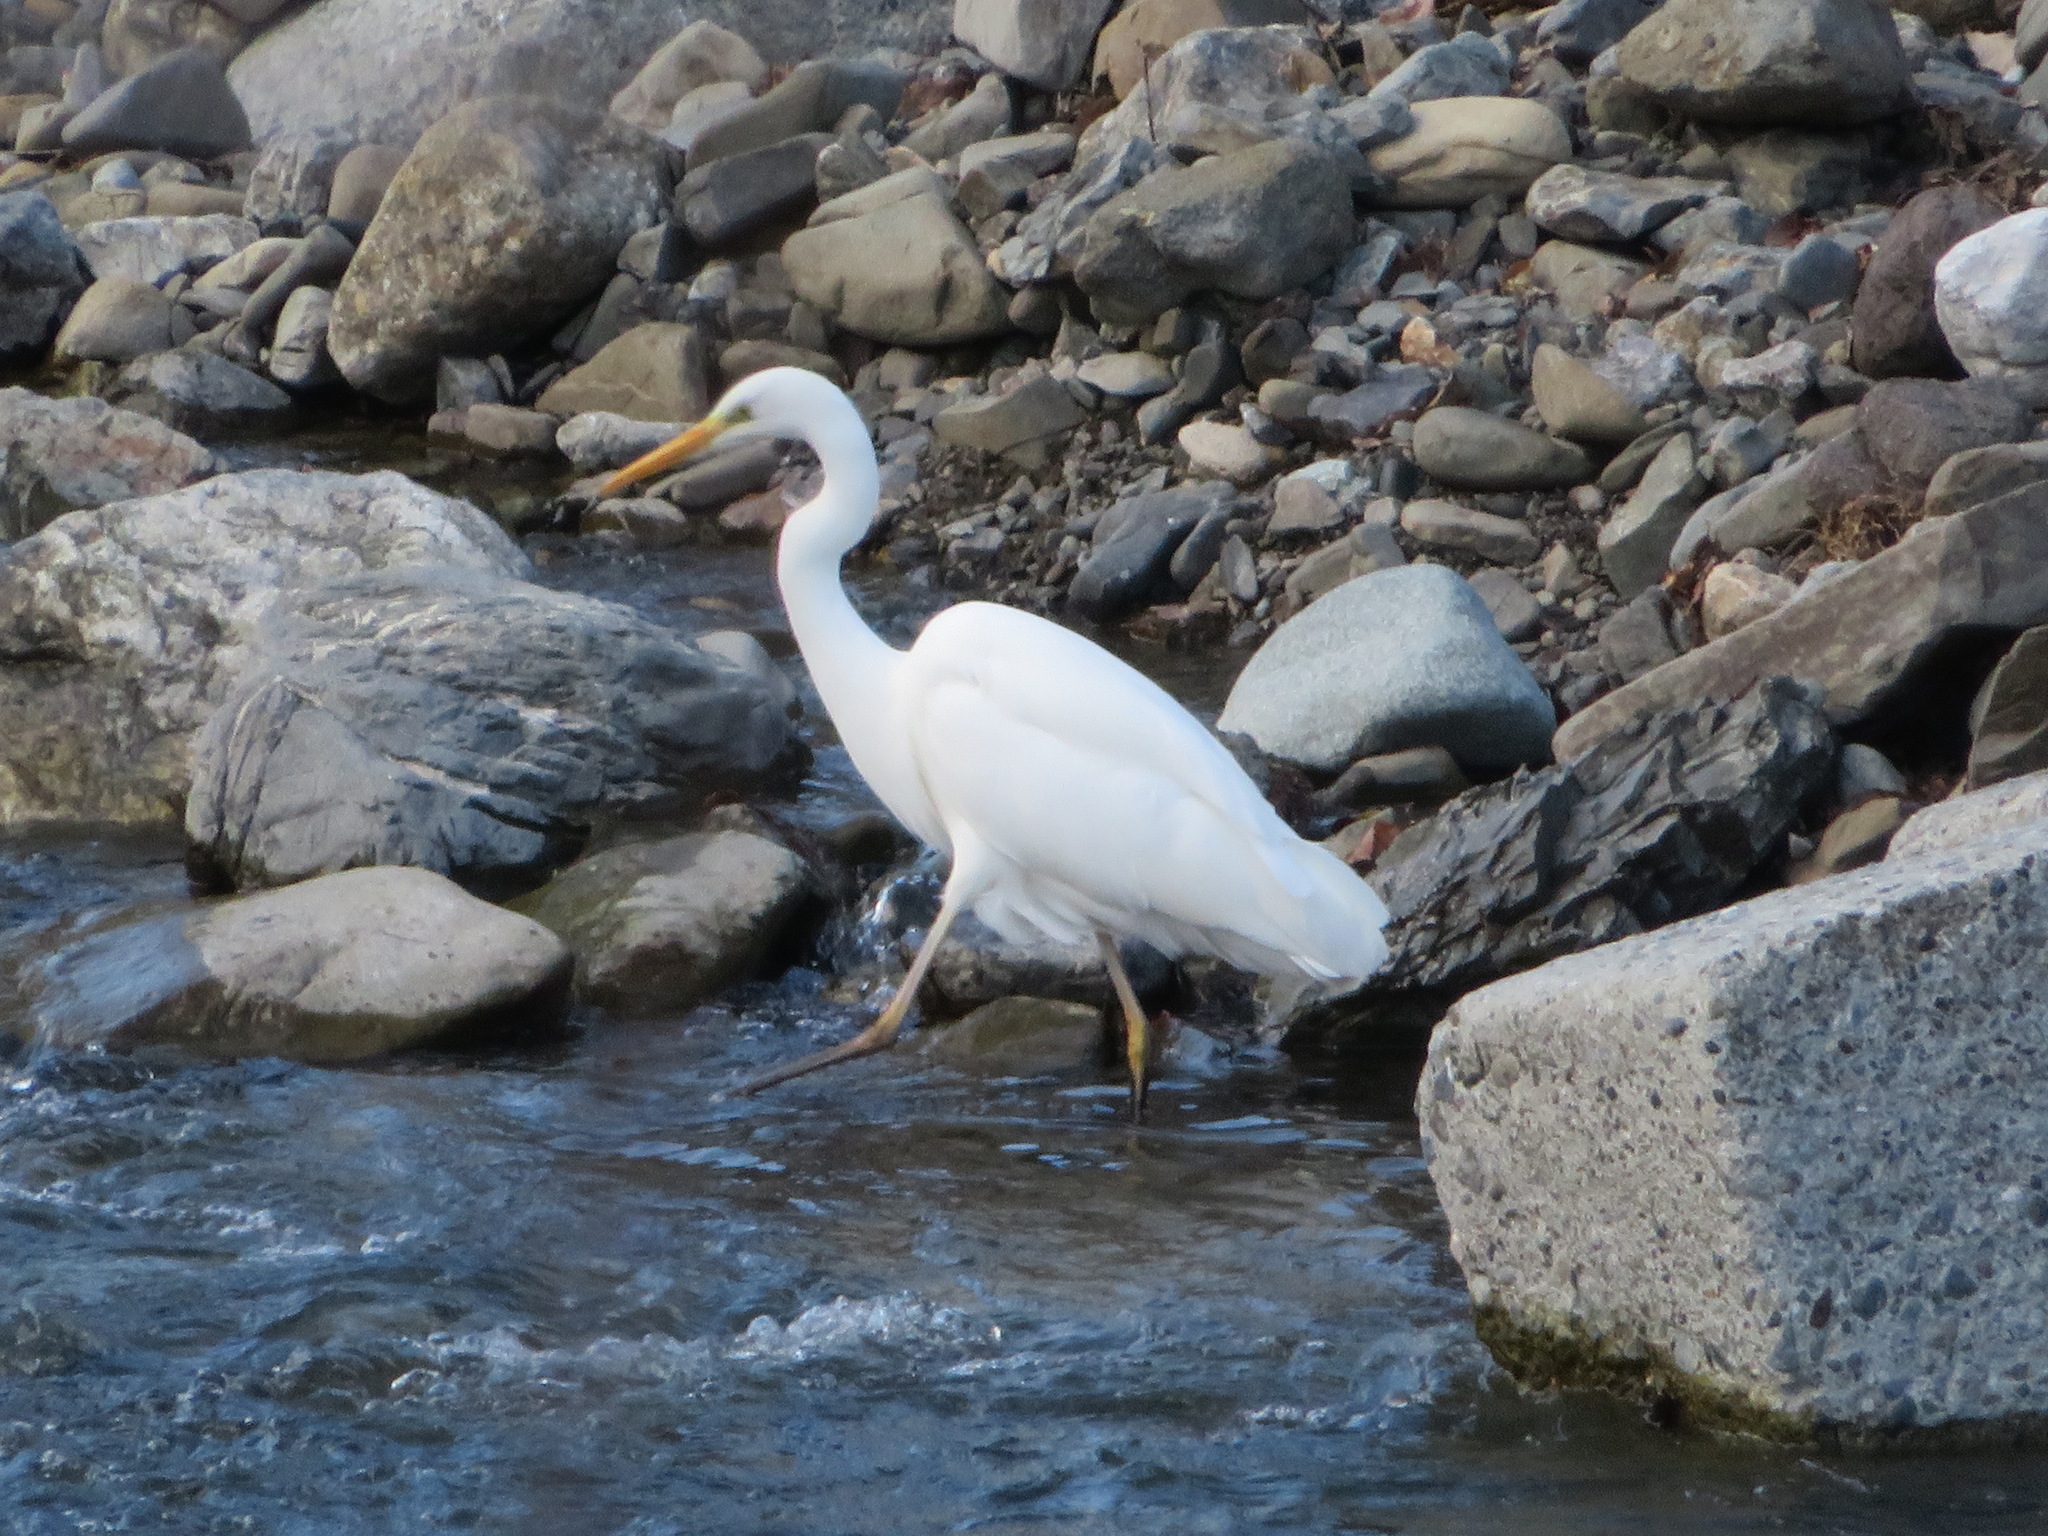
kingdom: Animalia
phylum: Chordata
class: Aves
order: Pelecaniformes
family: Ardeidae
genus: Egretta
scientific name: Egretta intermedia
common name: Intermediate egret
